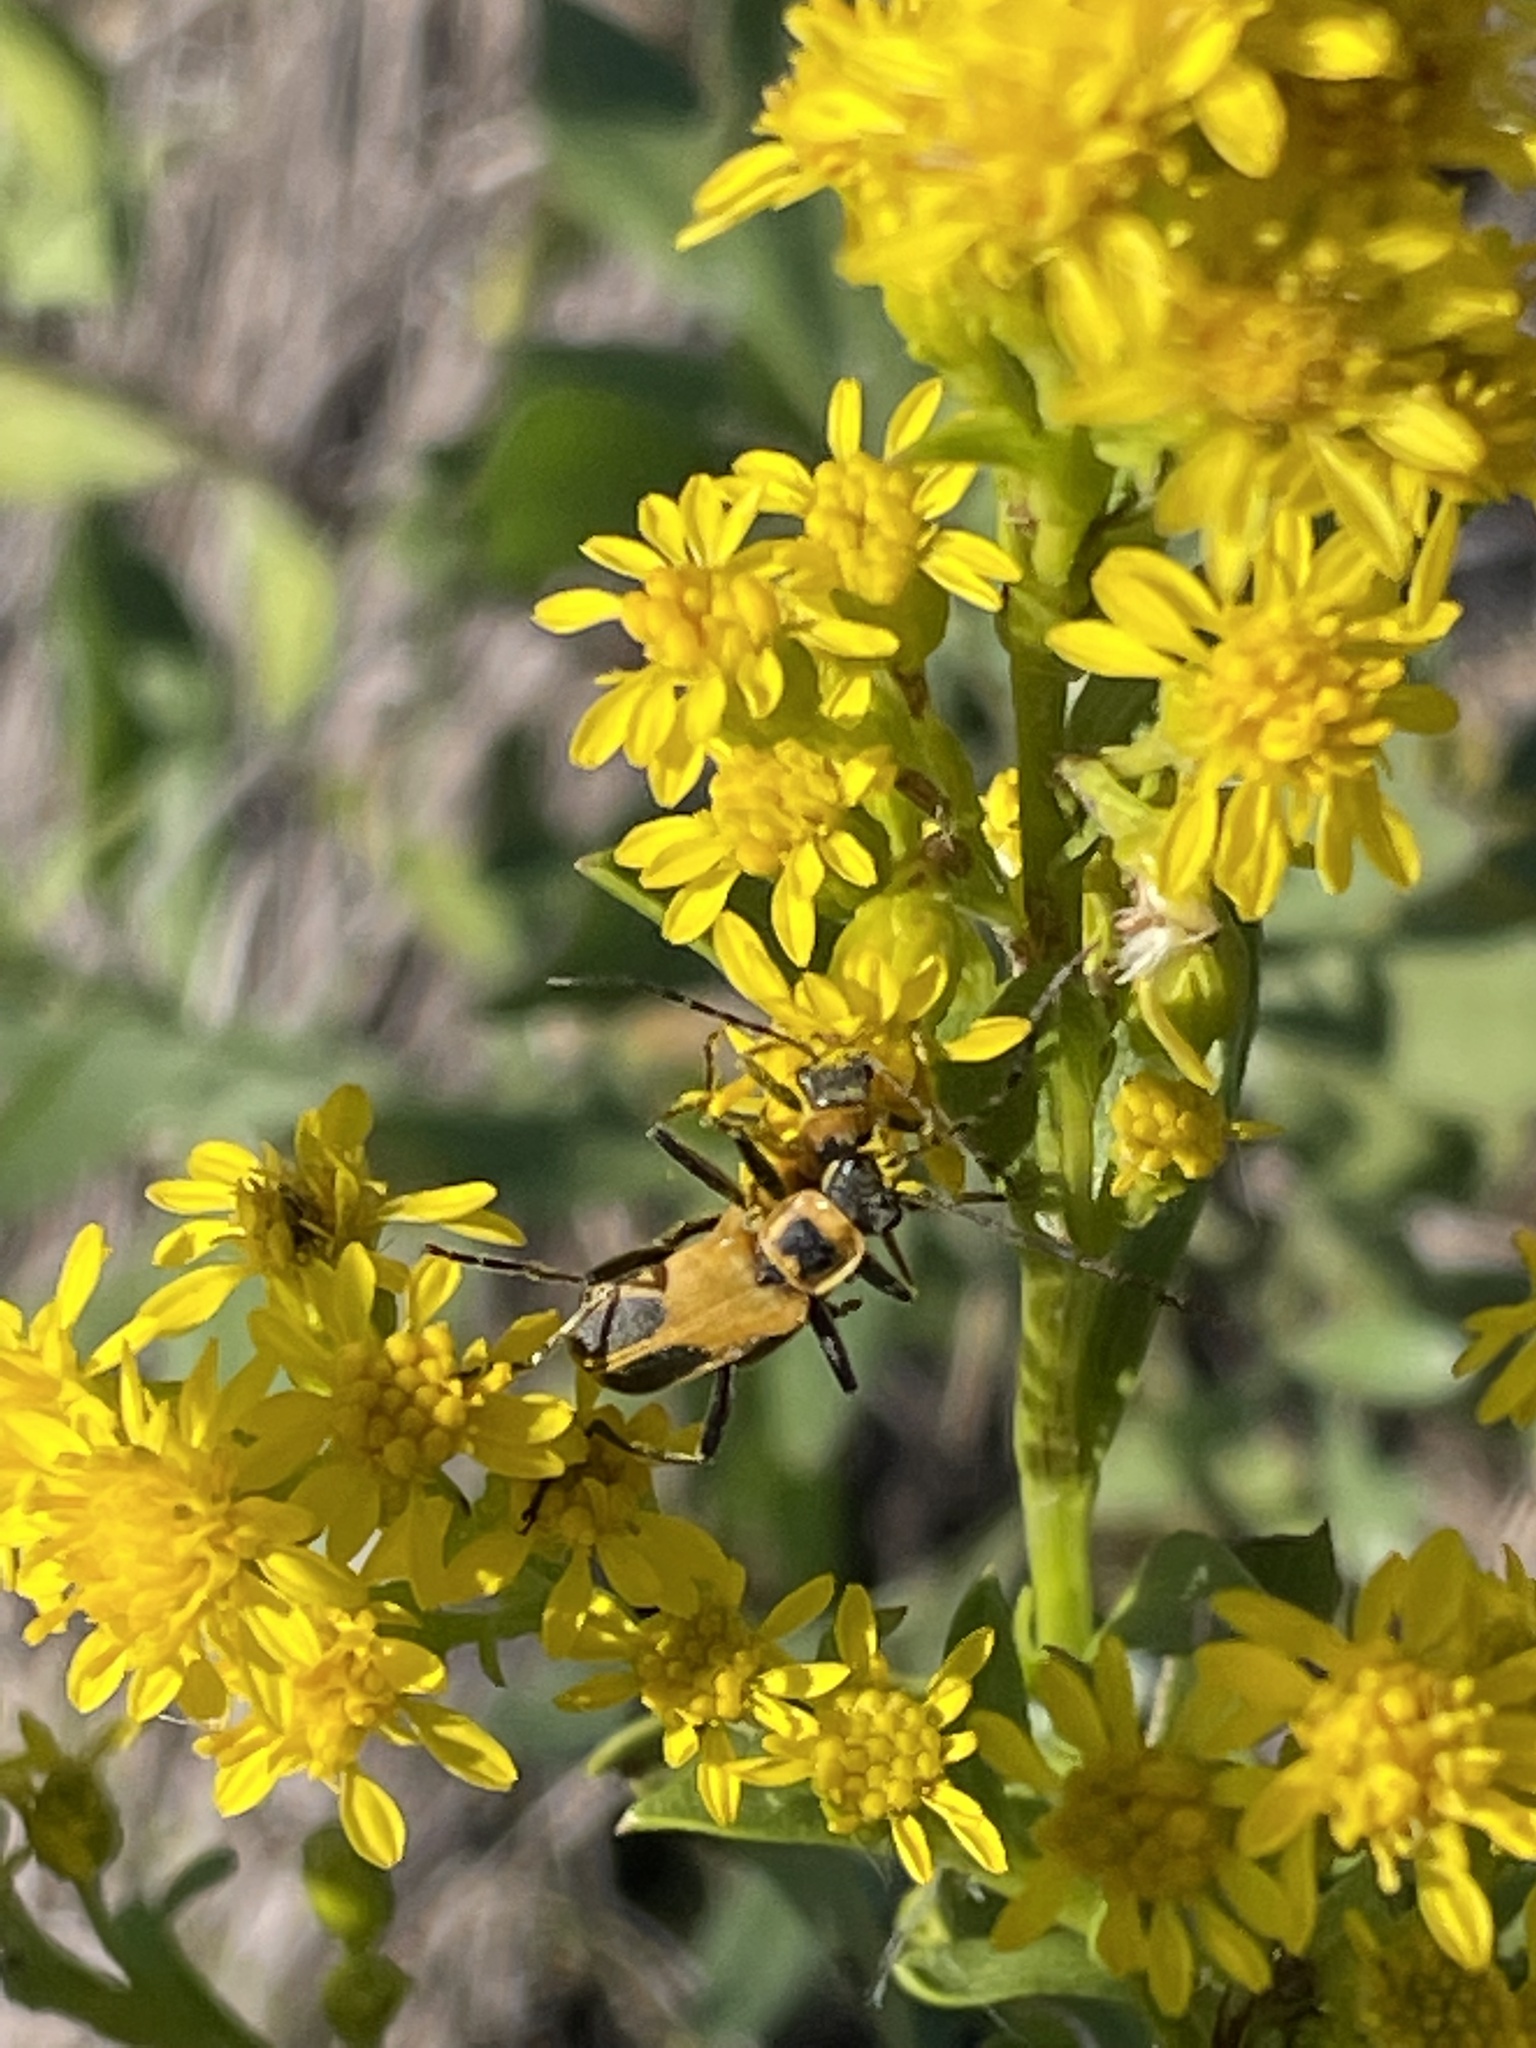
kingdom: Animalia
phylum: Arthropoda
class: Insecta
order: Coleoptera
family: Cantharidae
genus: Chauliognathus
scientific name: Chauliognathus pensylvanicus
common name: Goldenrod soldier beetle
